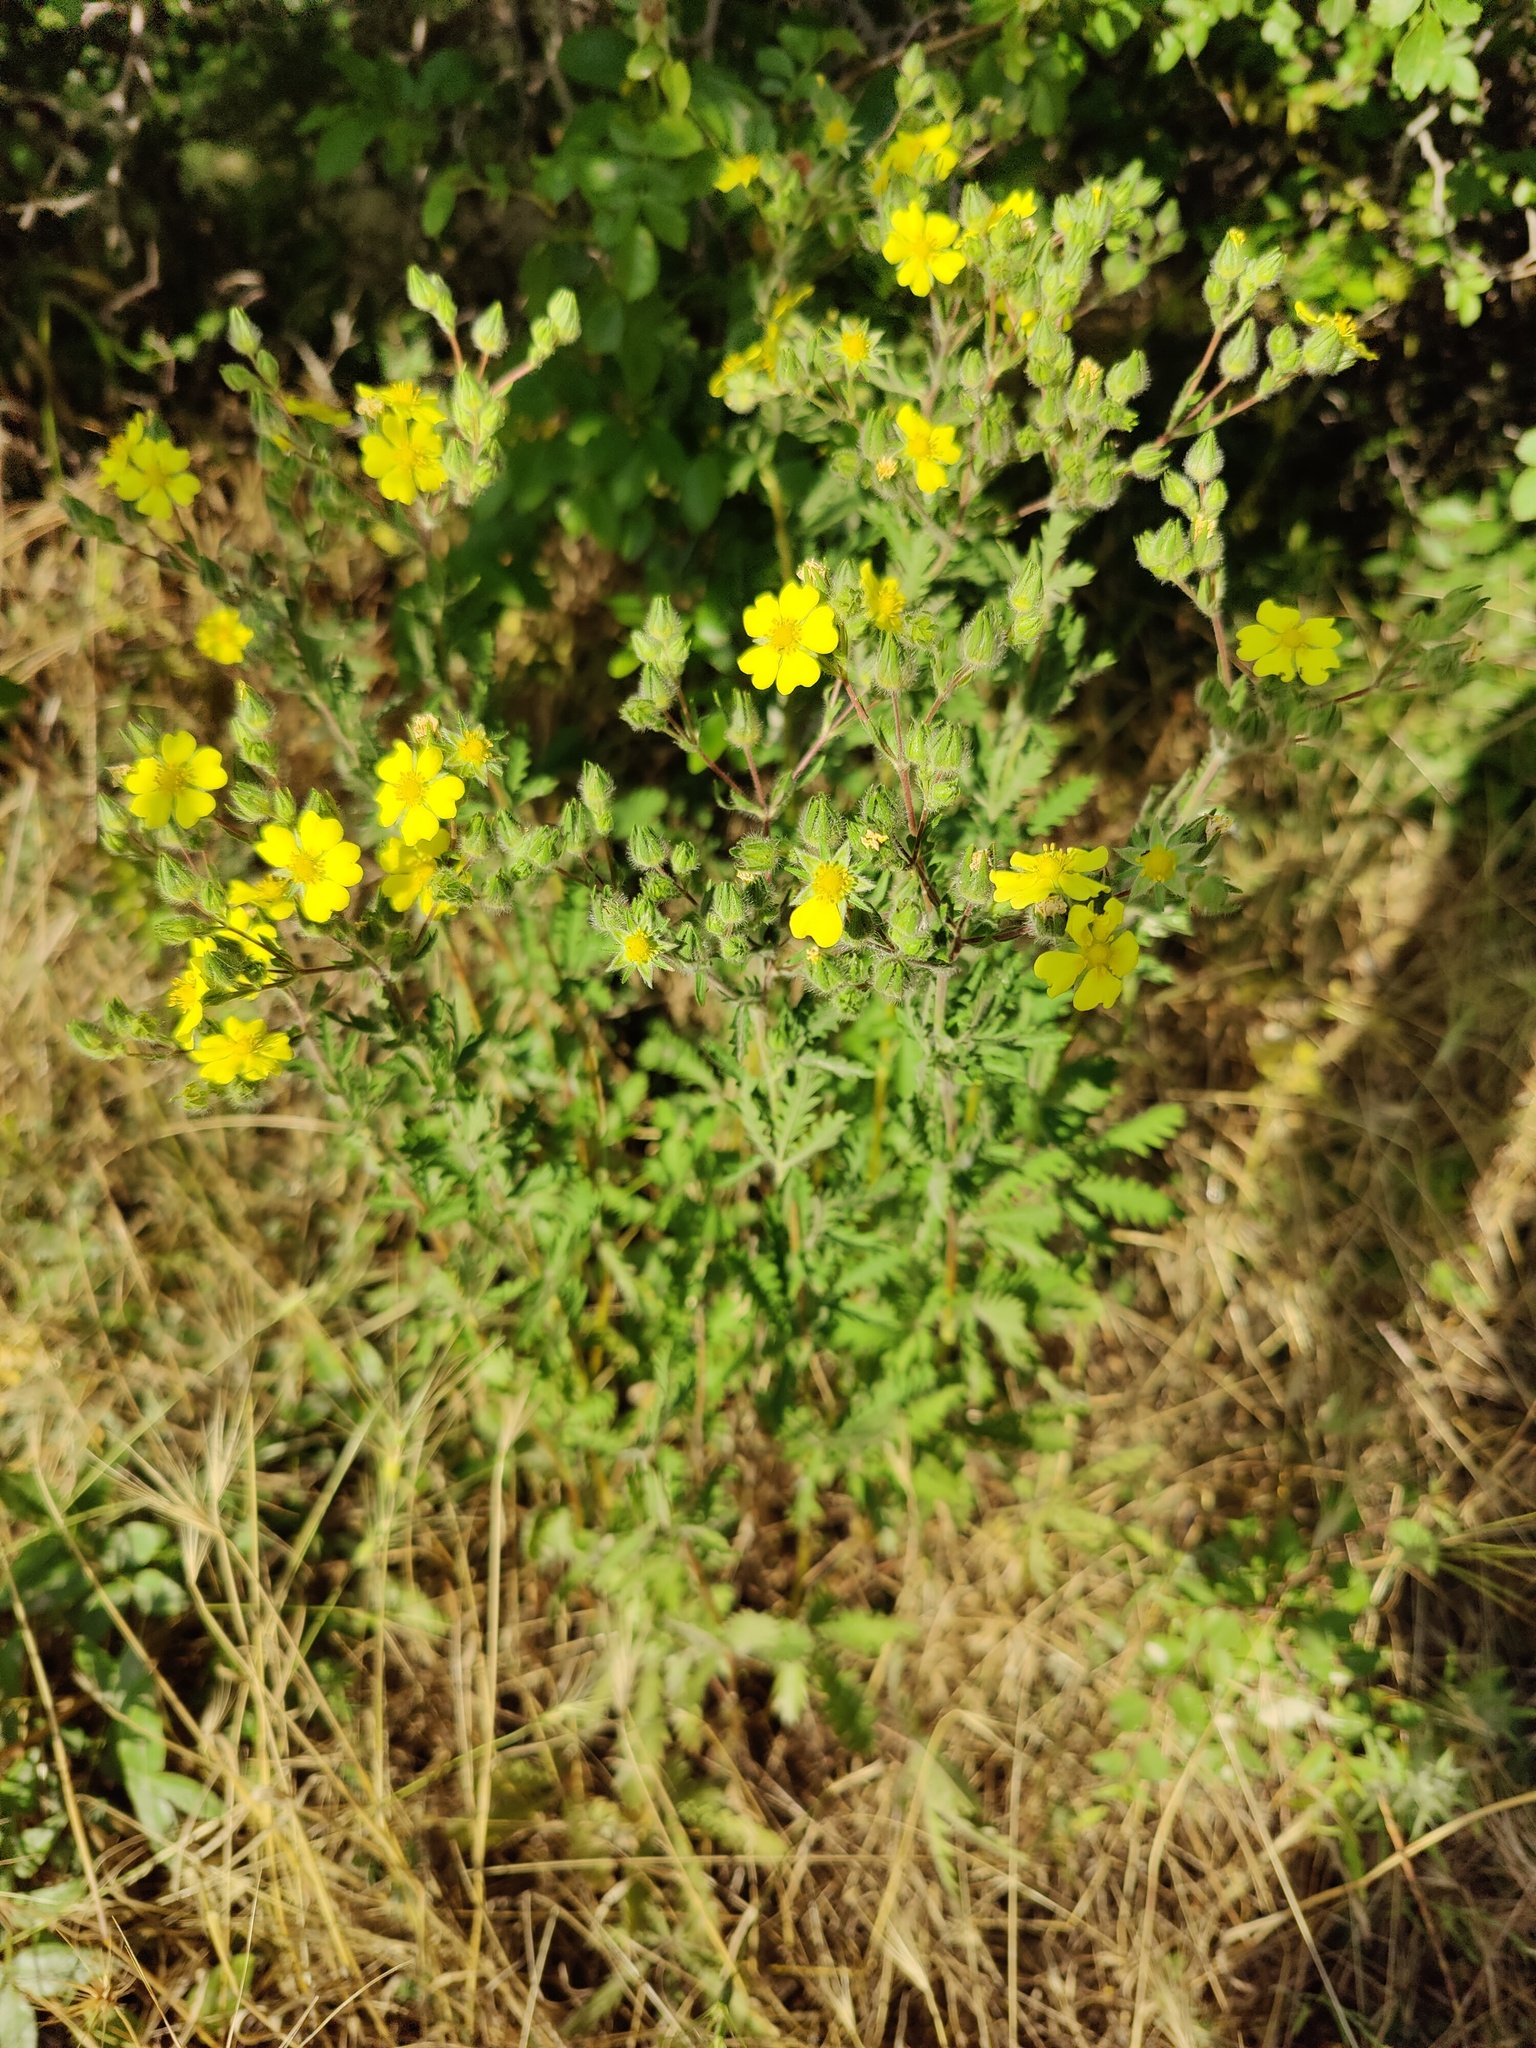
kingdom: Plantae
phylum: Tracheophyta
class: Magnoliopsida
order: Rosales
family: Rosaceae
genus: Potentilla
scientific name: Potentilla recta
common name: Sulphur cinquefoil
